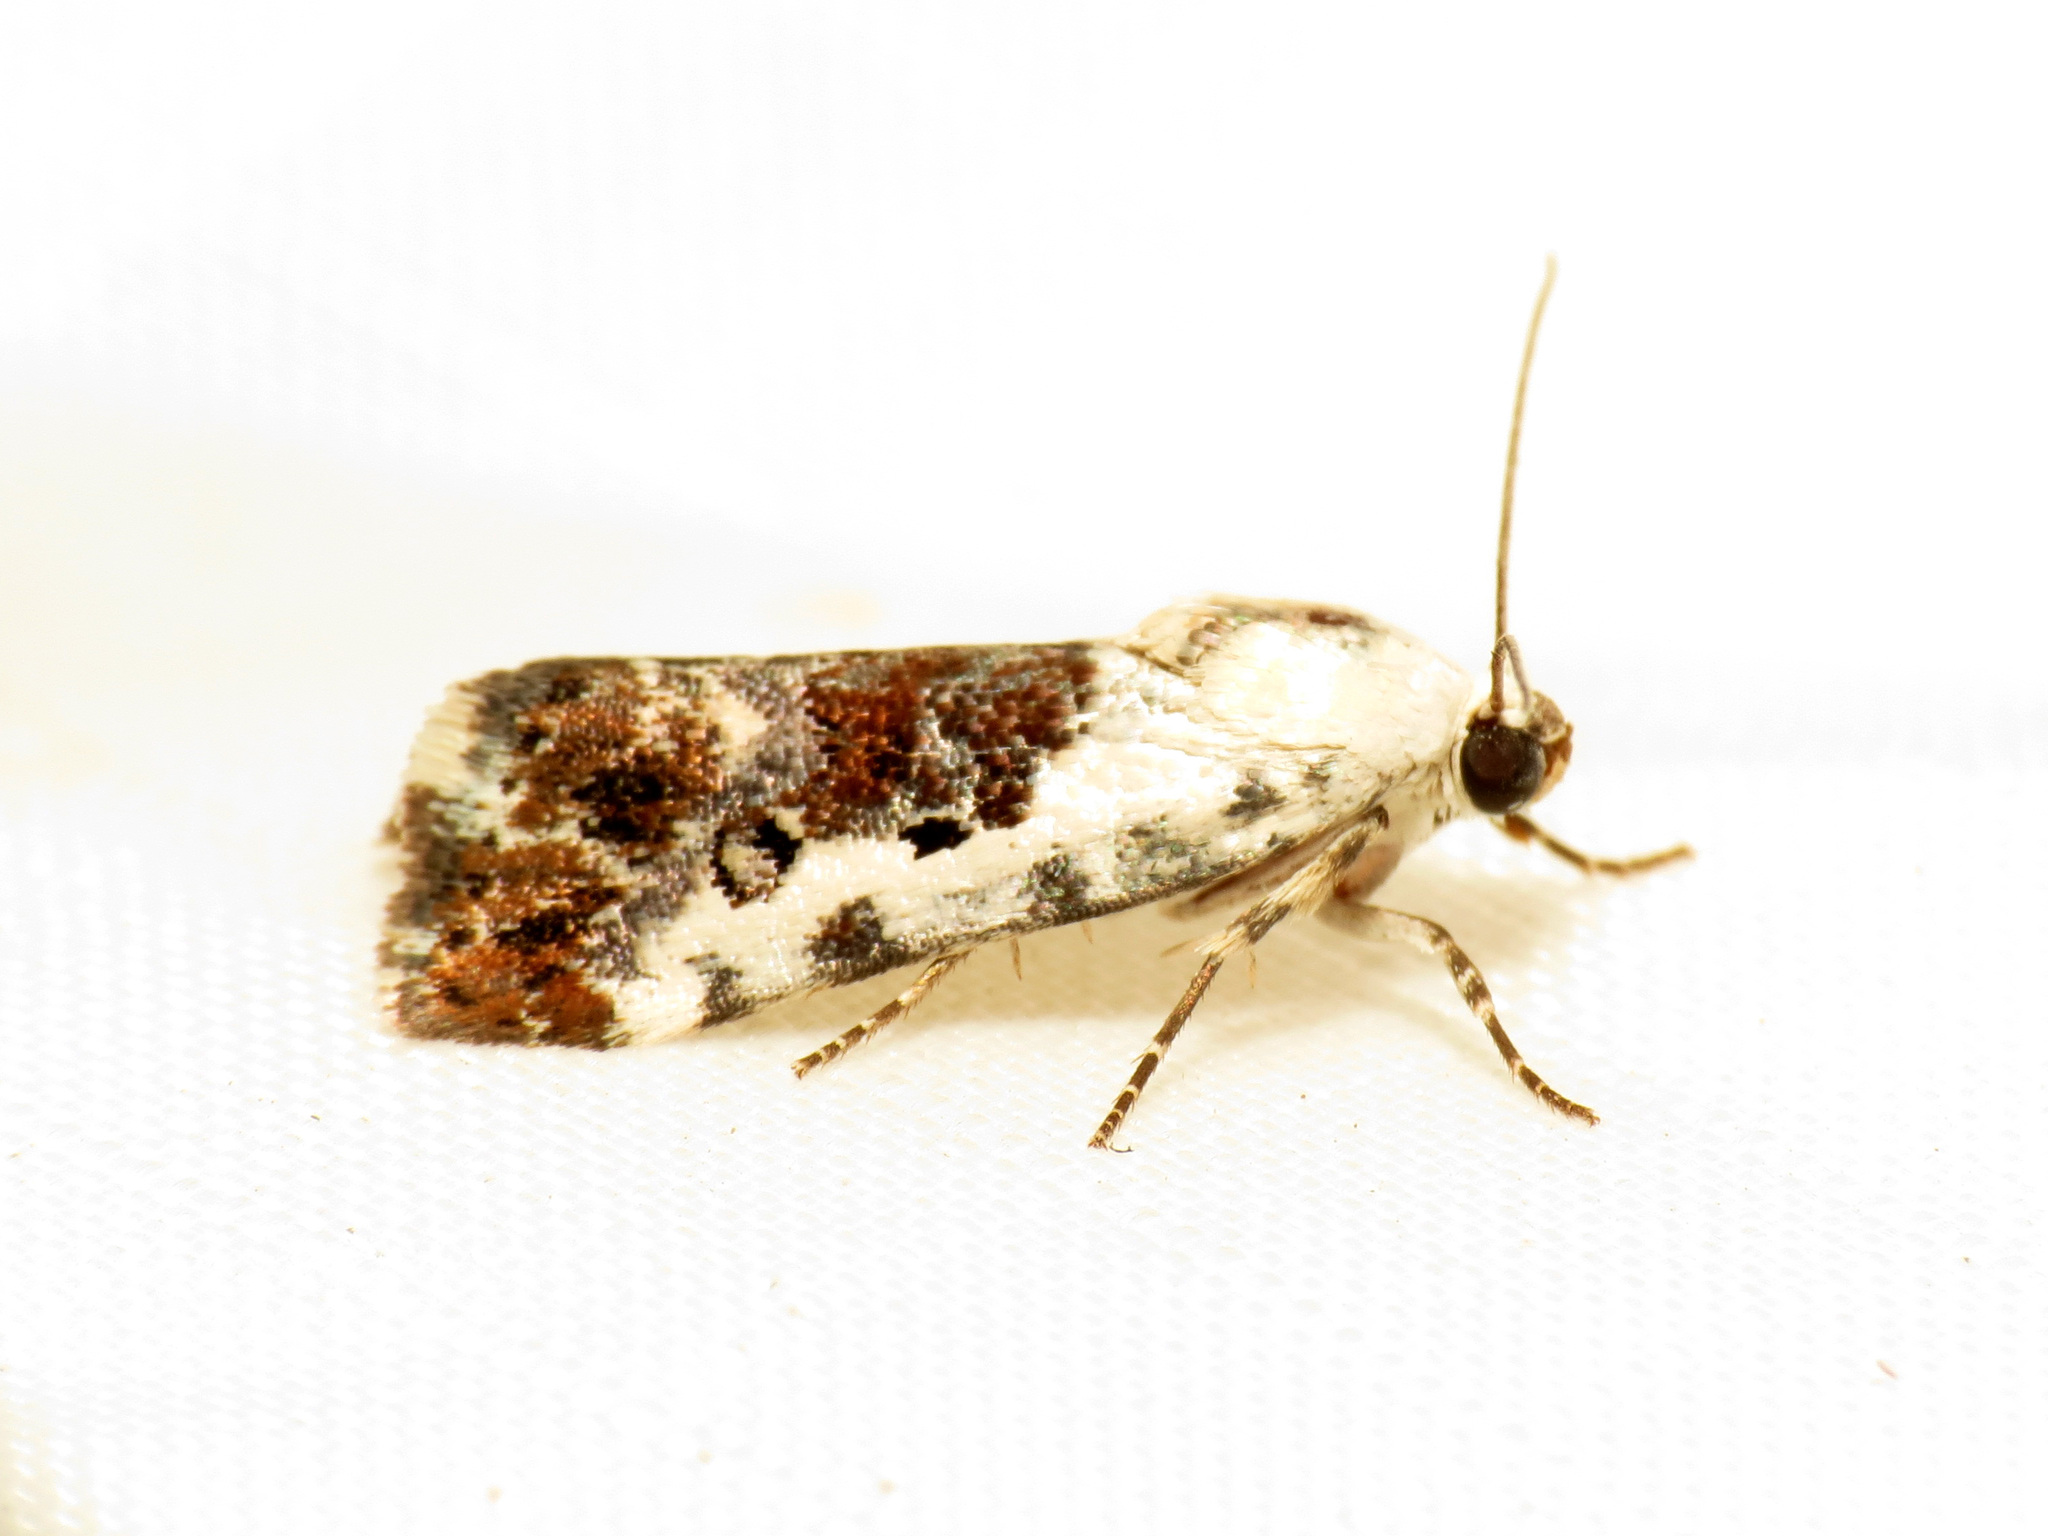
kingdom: Animalia
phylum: Arthropoda
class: Insecta
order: Lepidoptera
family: Noctuidae
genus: Acontia
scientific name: Acontia phecolisca
